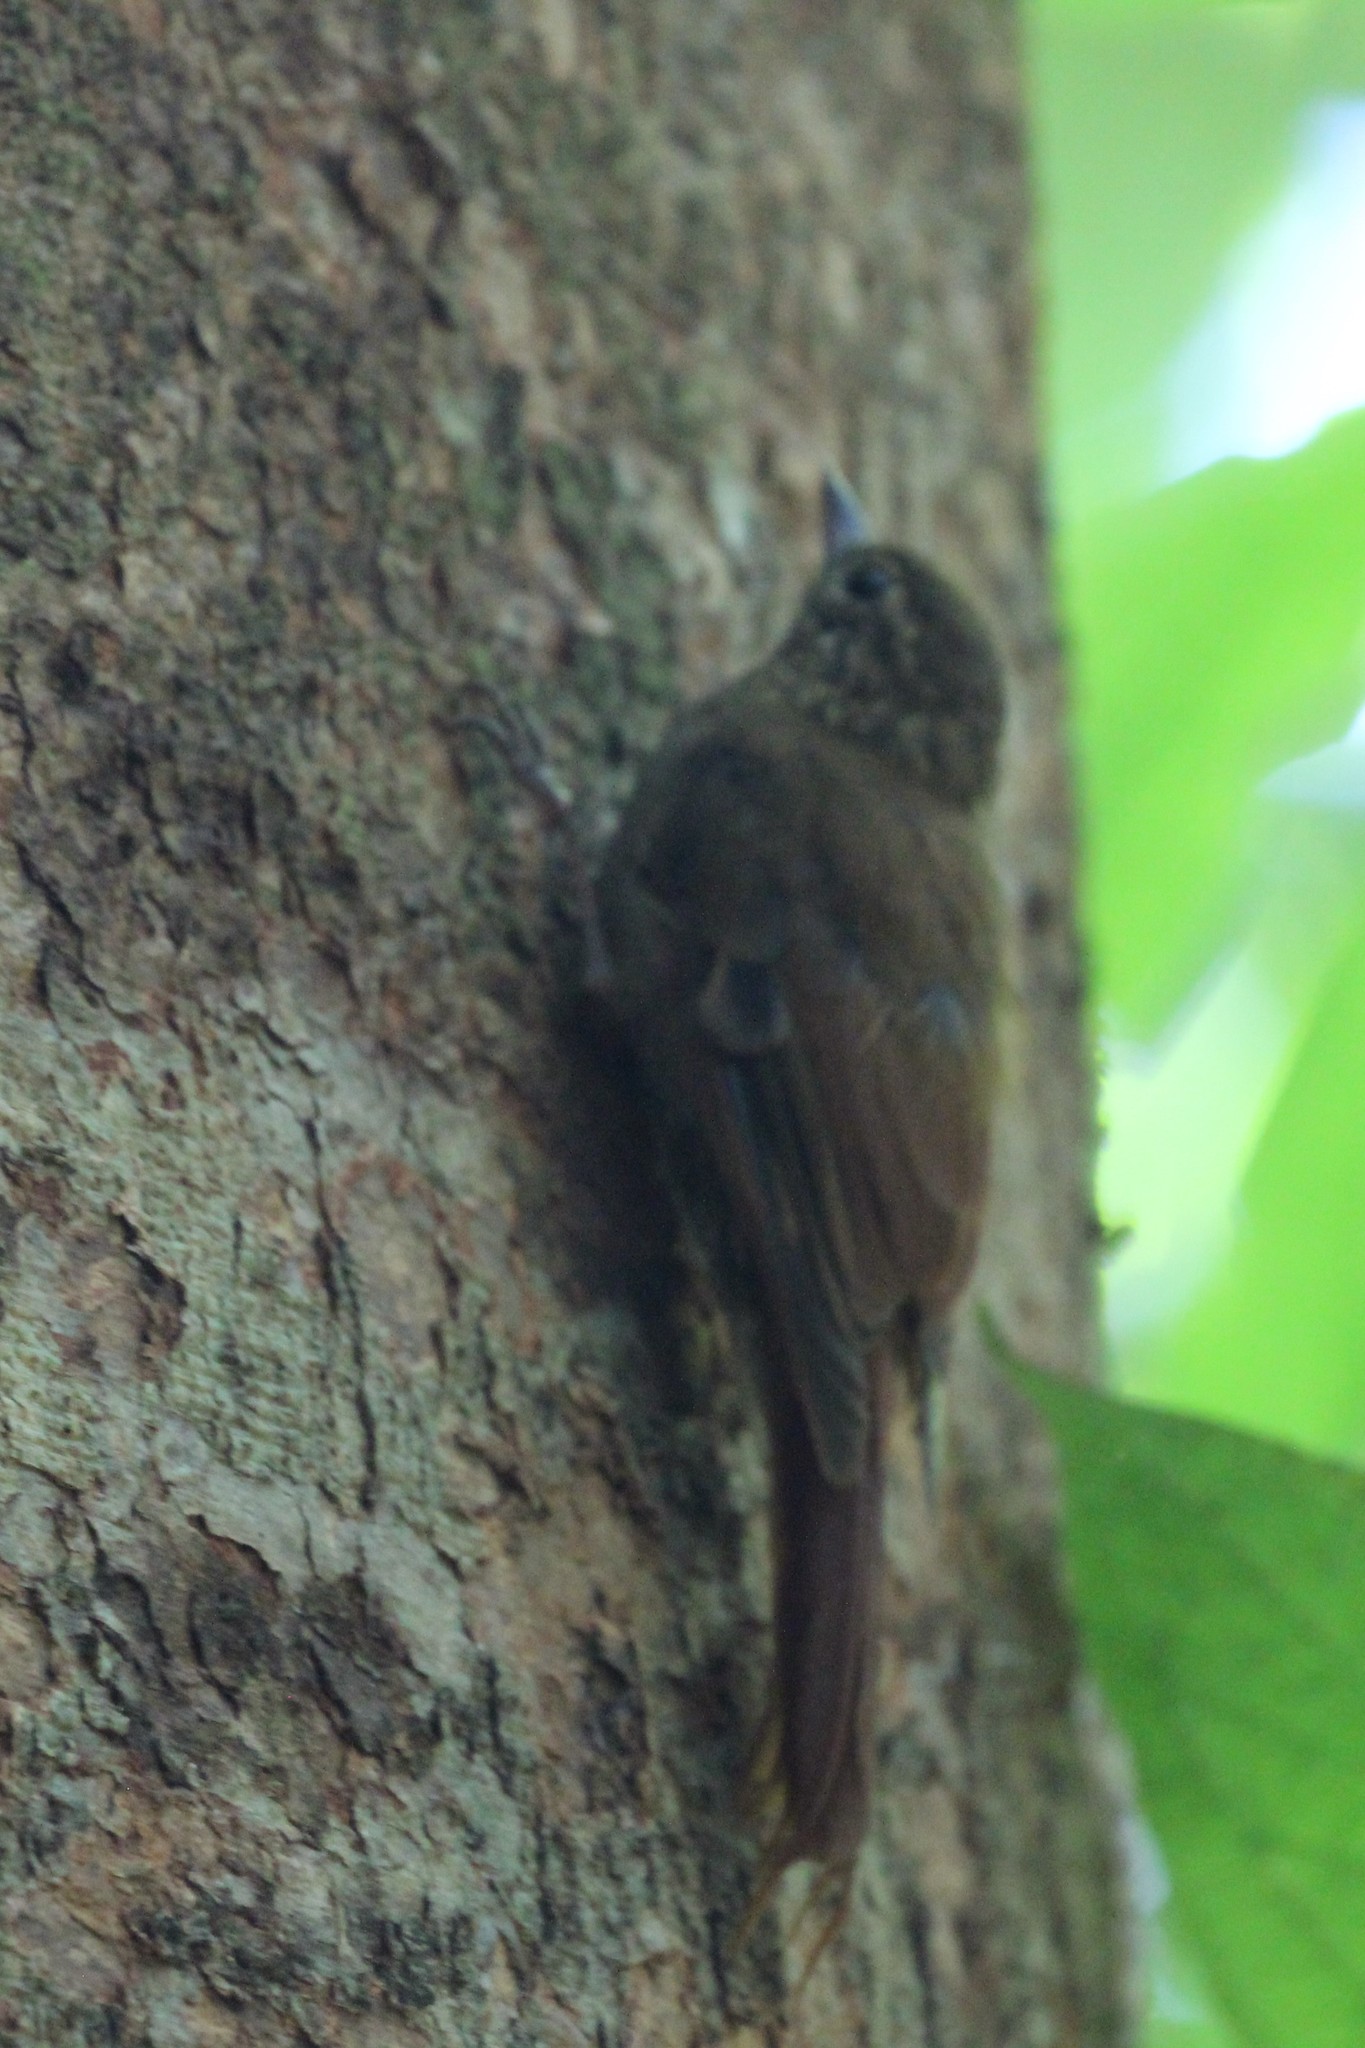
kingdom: Animalia
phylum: Chordata
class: Aves
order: Passeriformes
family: Furnariidae
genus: Glyphorynchus
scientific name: Glyphorynchus spirurus
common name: Wedge-billed woodcreeper
